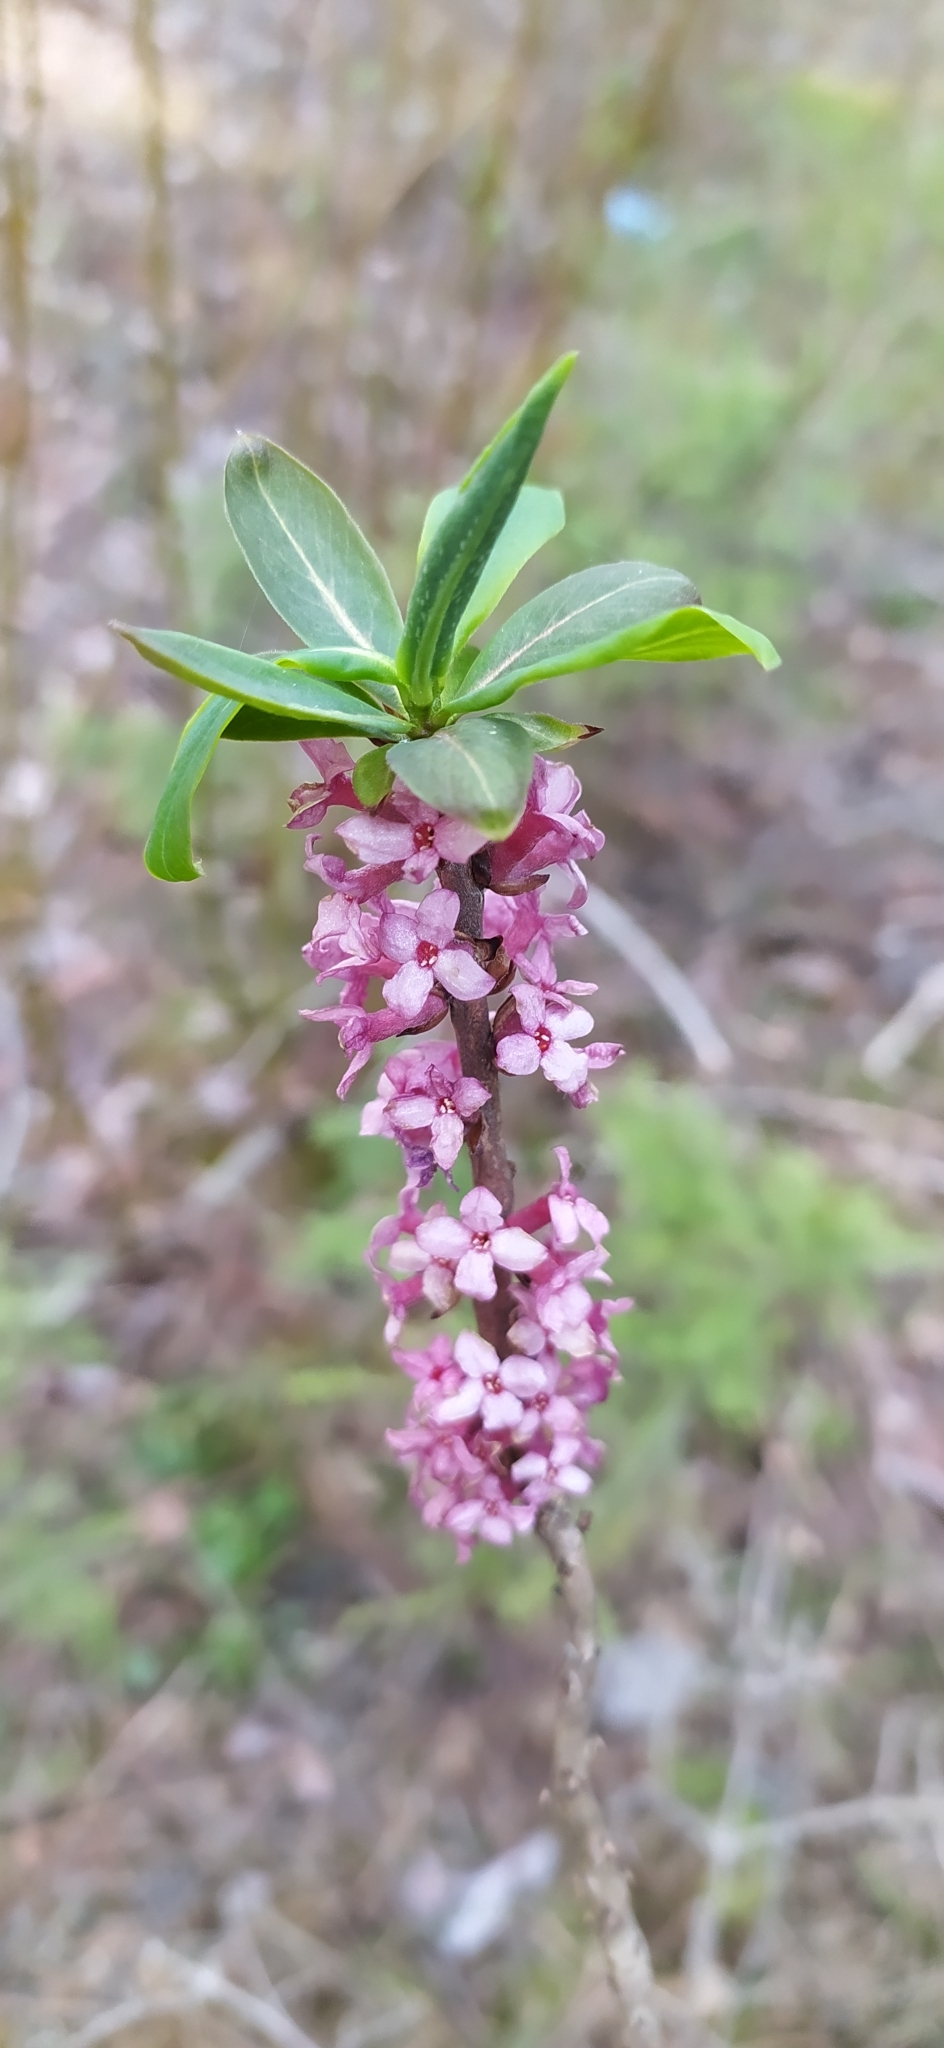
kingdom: Plantae
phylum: Tracheophyta
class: Magnoliopsida
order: Malvales
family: Thymelaeaceae
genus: Daphne
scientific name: Daphne mezereum
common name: Mezereon
